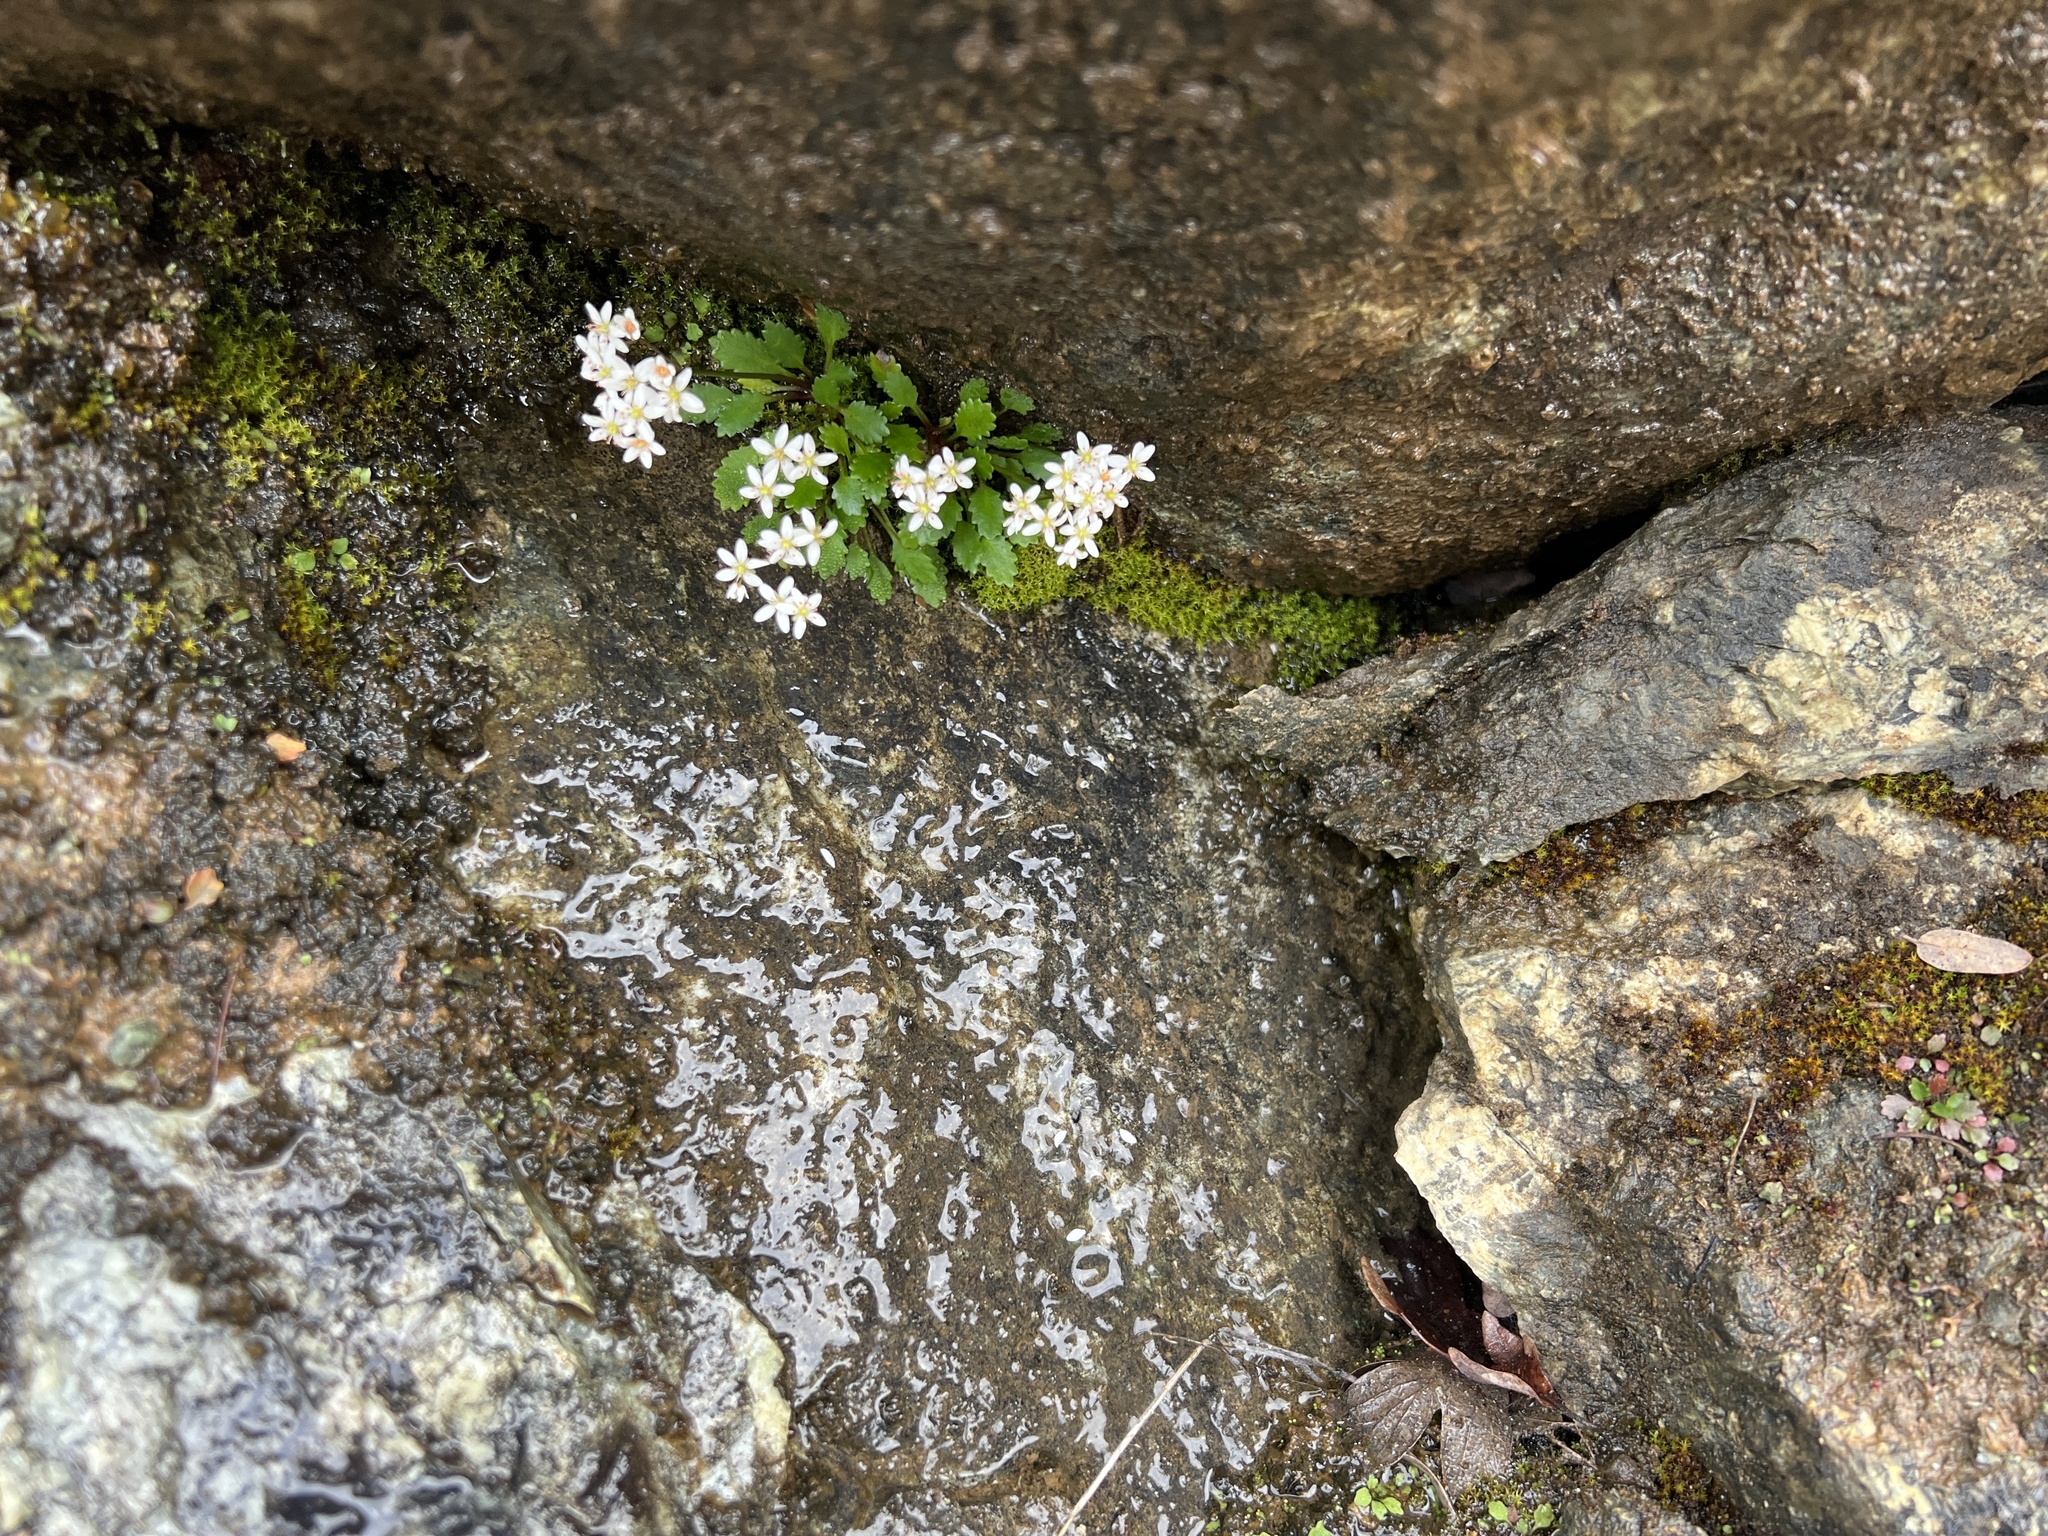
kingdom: Plantae
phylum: Tracheophyta
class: Magnoliopsida
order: Saxifragales
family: Saxifragaceae
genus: Micranthes
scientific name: Micranthes howellii
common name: Howell's saxifrage
